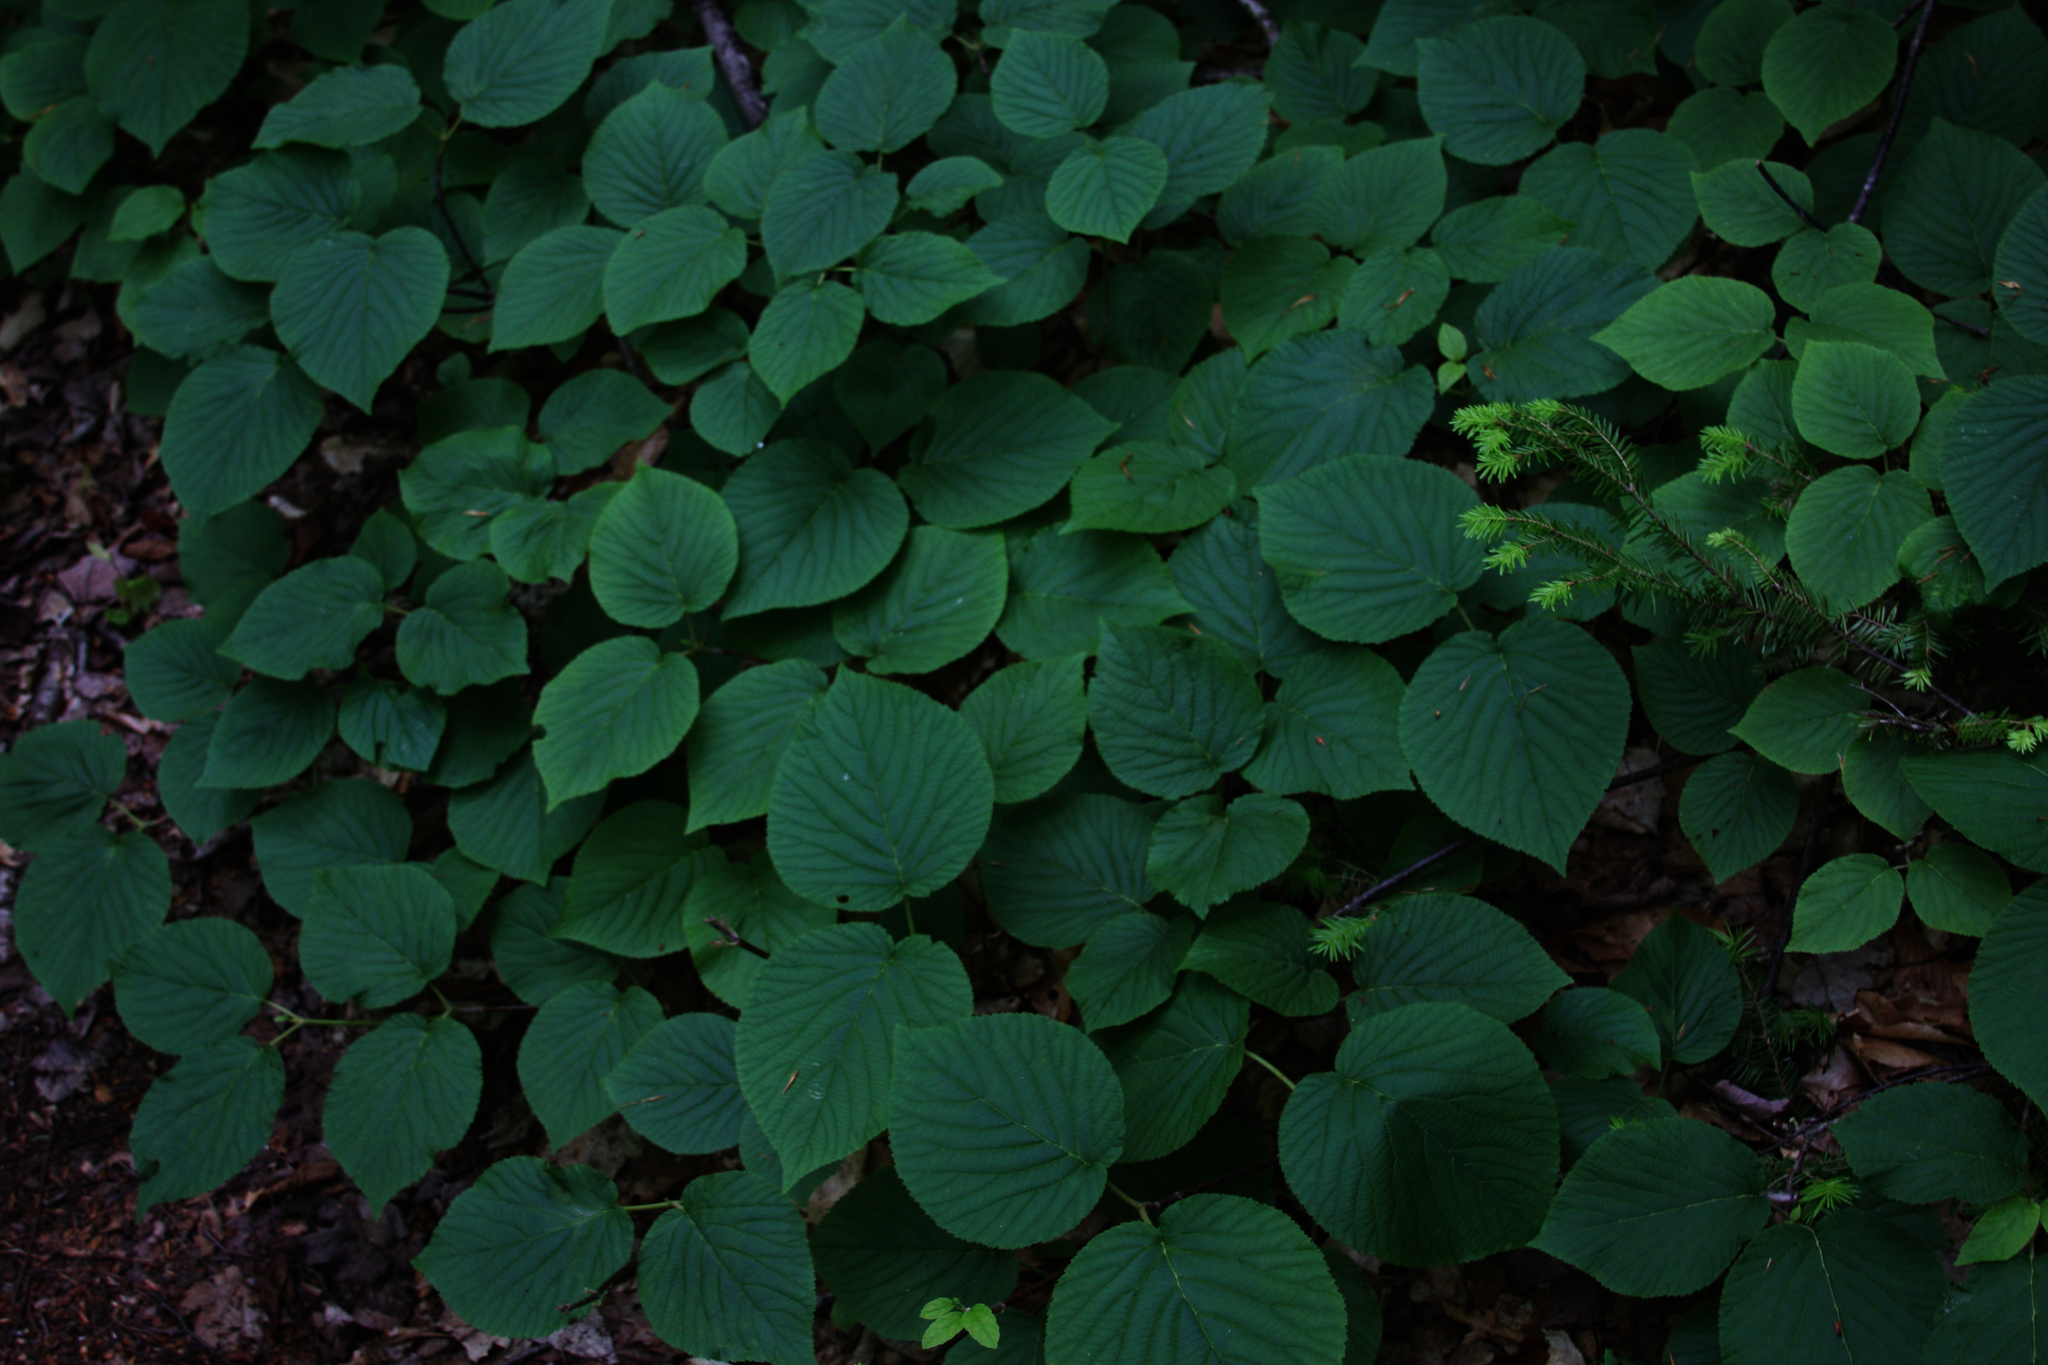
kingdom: Plantae
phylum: Tracheophyta
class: Pinopsida
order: Pinales
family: Pinaceae
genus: Tsuga
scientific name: Tsuga canadensis
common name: Eastern hemlock
